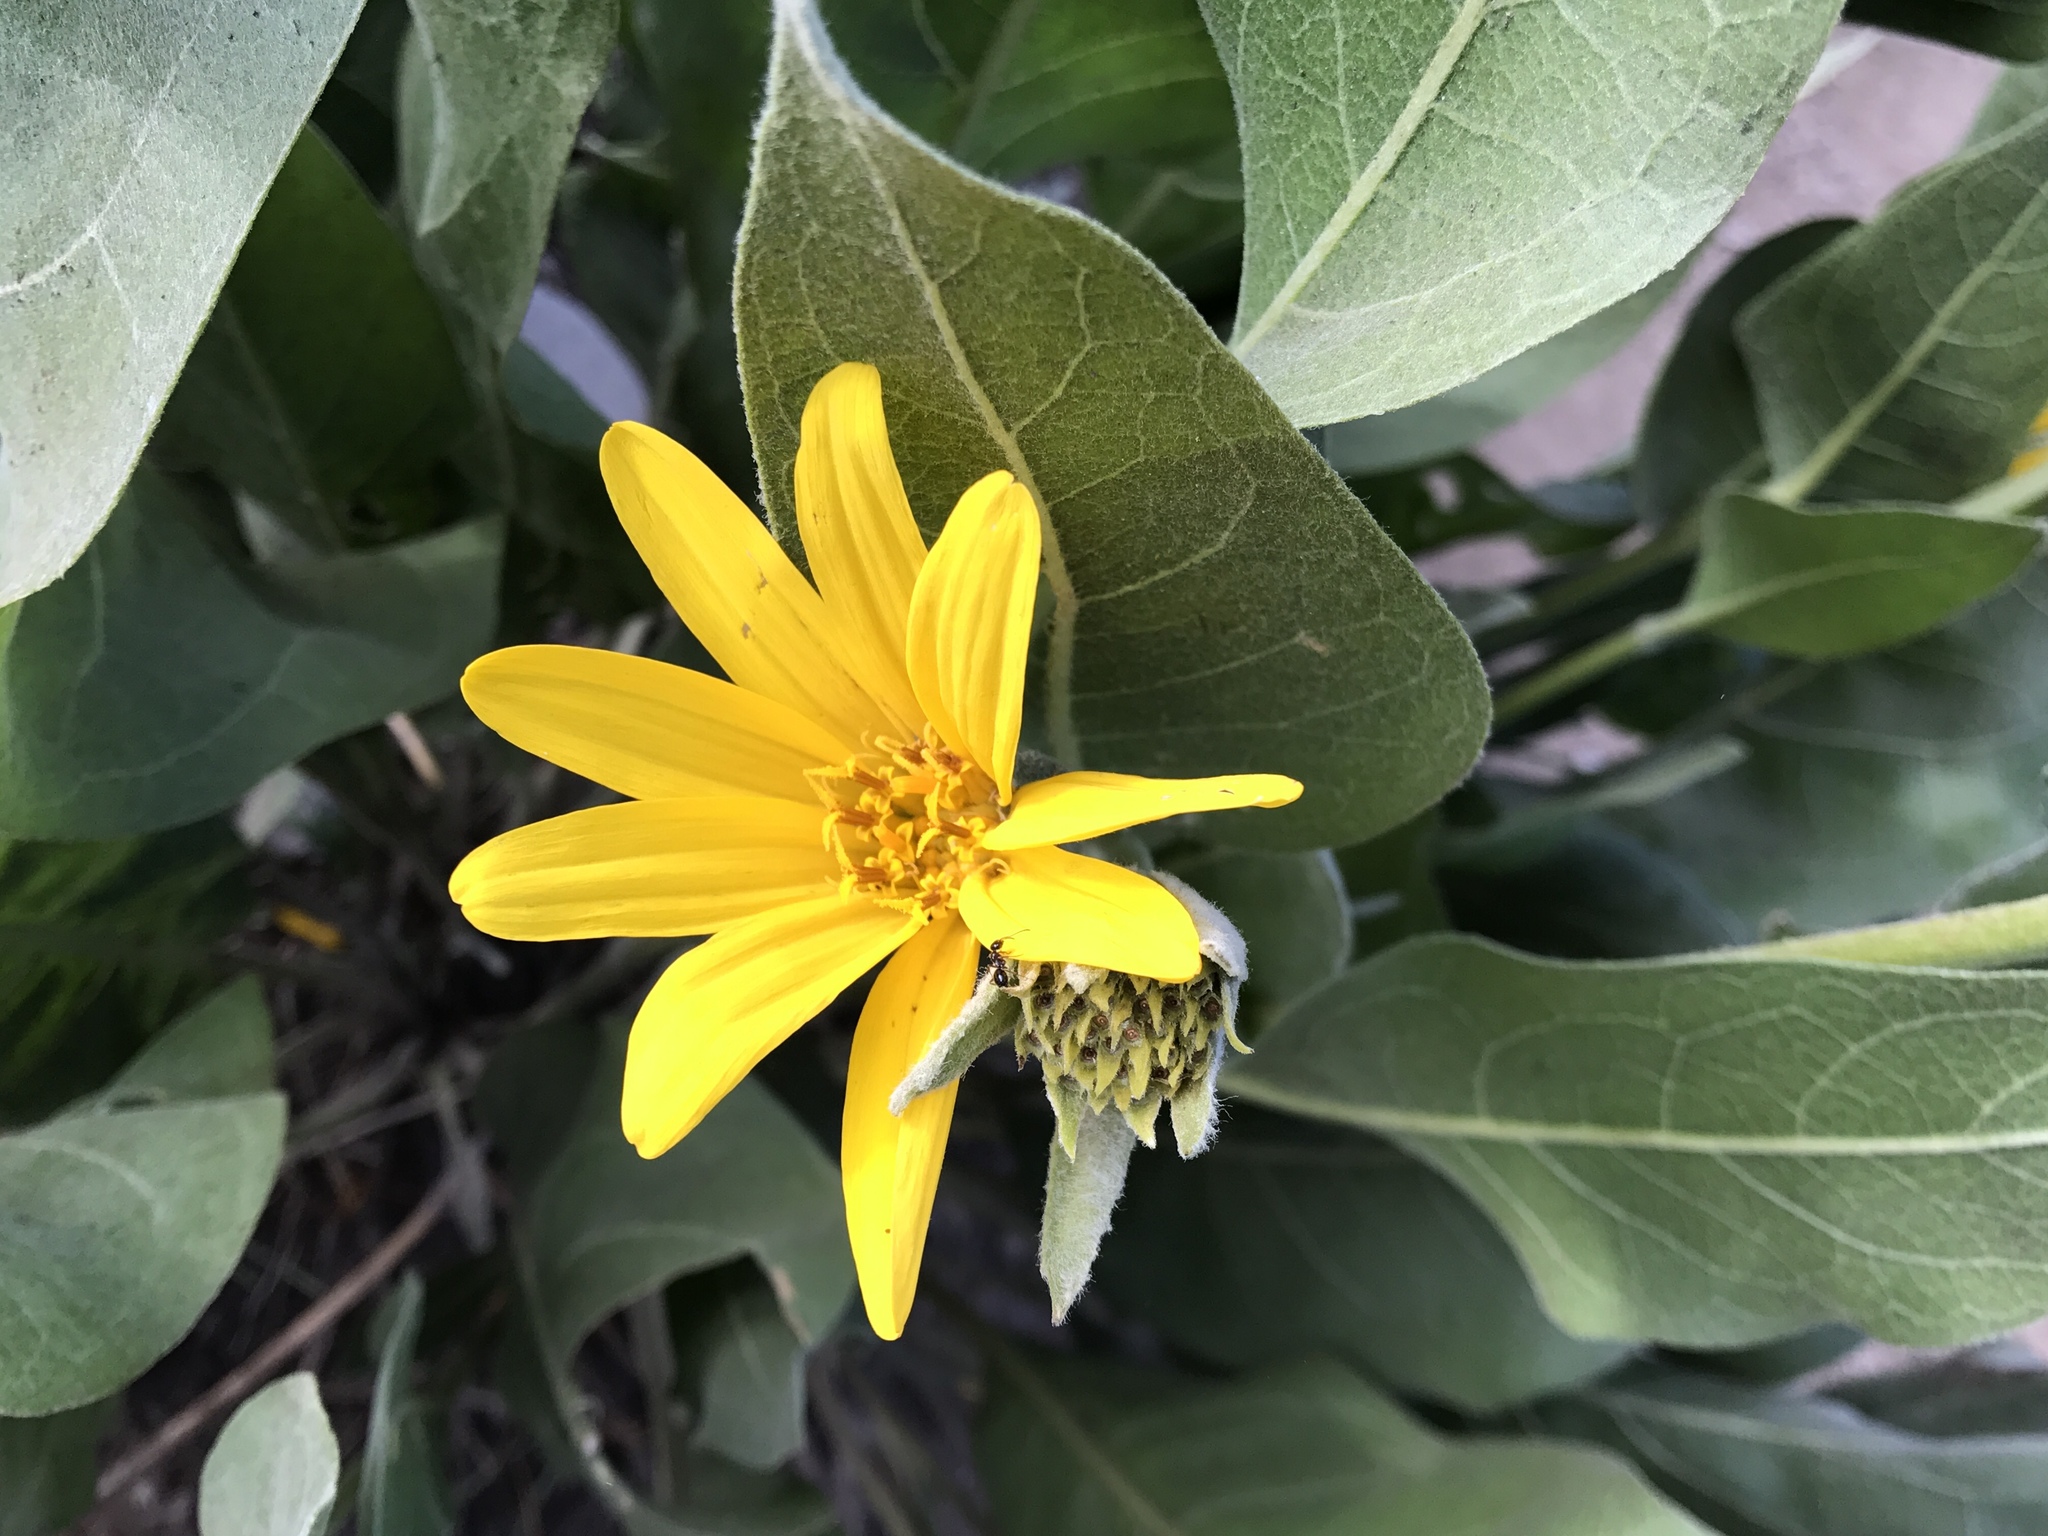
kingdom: Plantae
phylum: Tracheophyta
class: Magnoliopsida
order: Asterales
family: Asteraceae
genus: Wyethia
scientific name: Wyethia mollis
